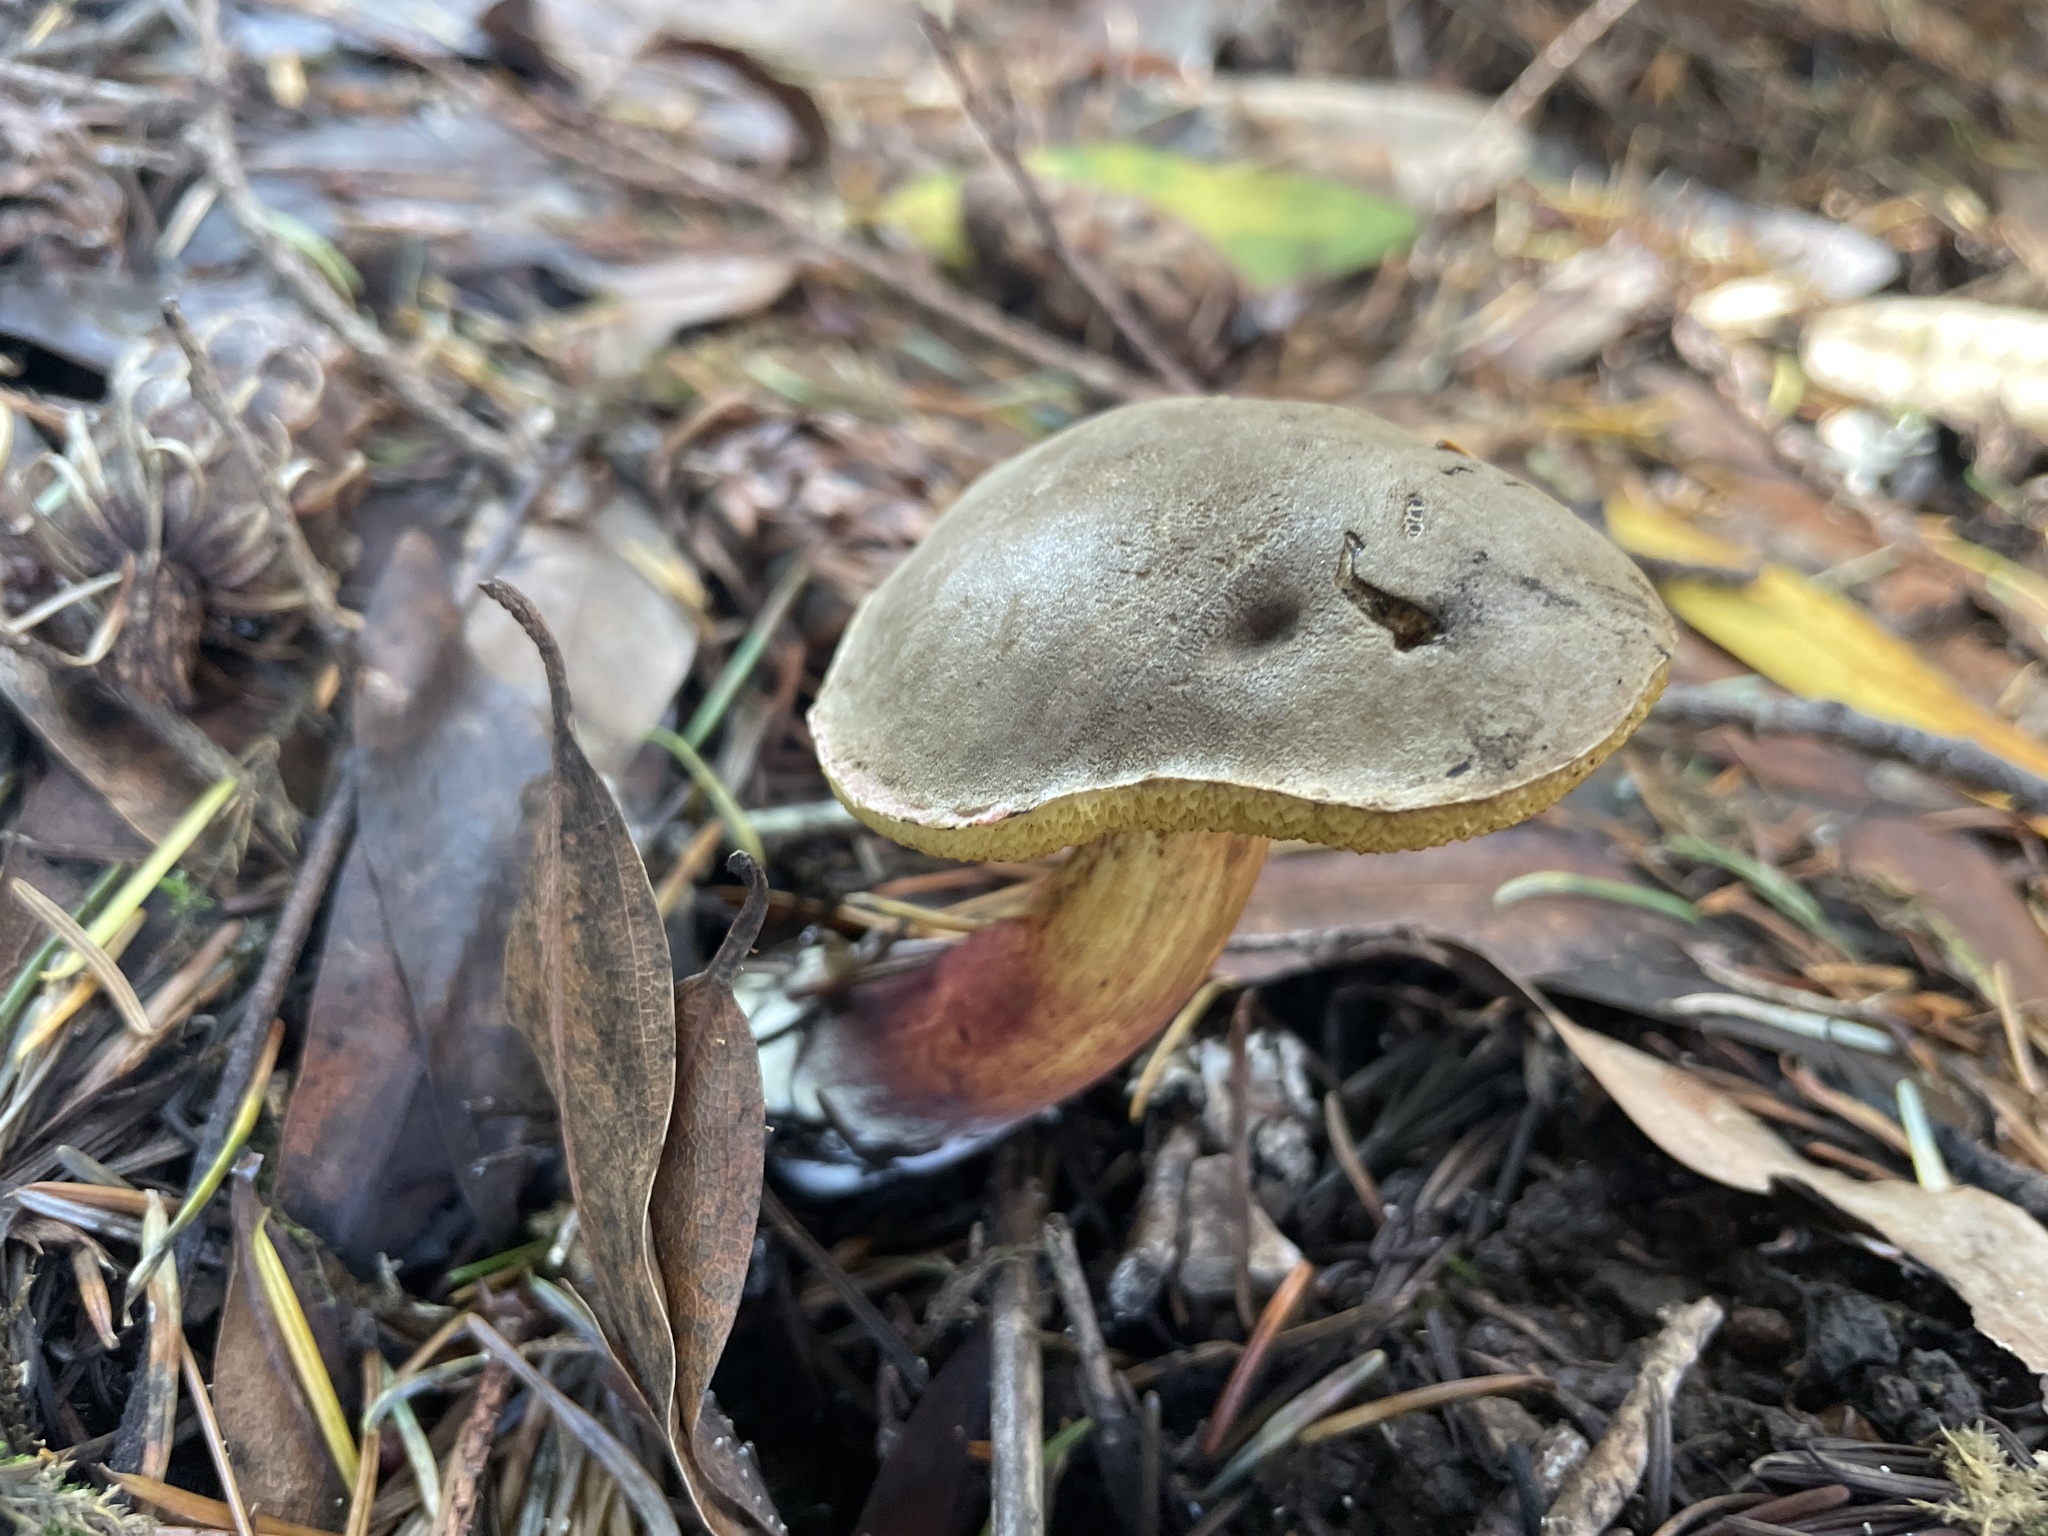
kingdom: Fungi
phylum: Basidiomycota
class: Agaricomycetes
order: Boletales
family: Boletaceae
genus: Xerocomellus
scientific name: Xerocomellus diffractus
